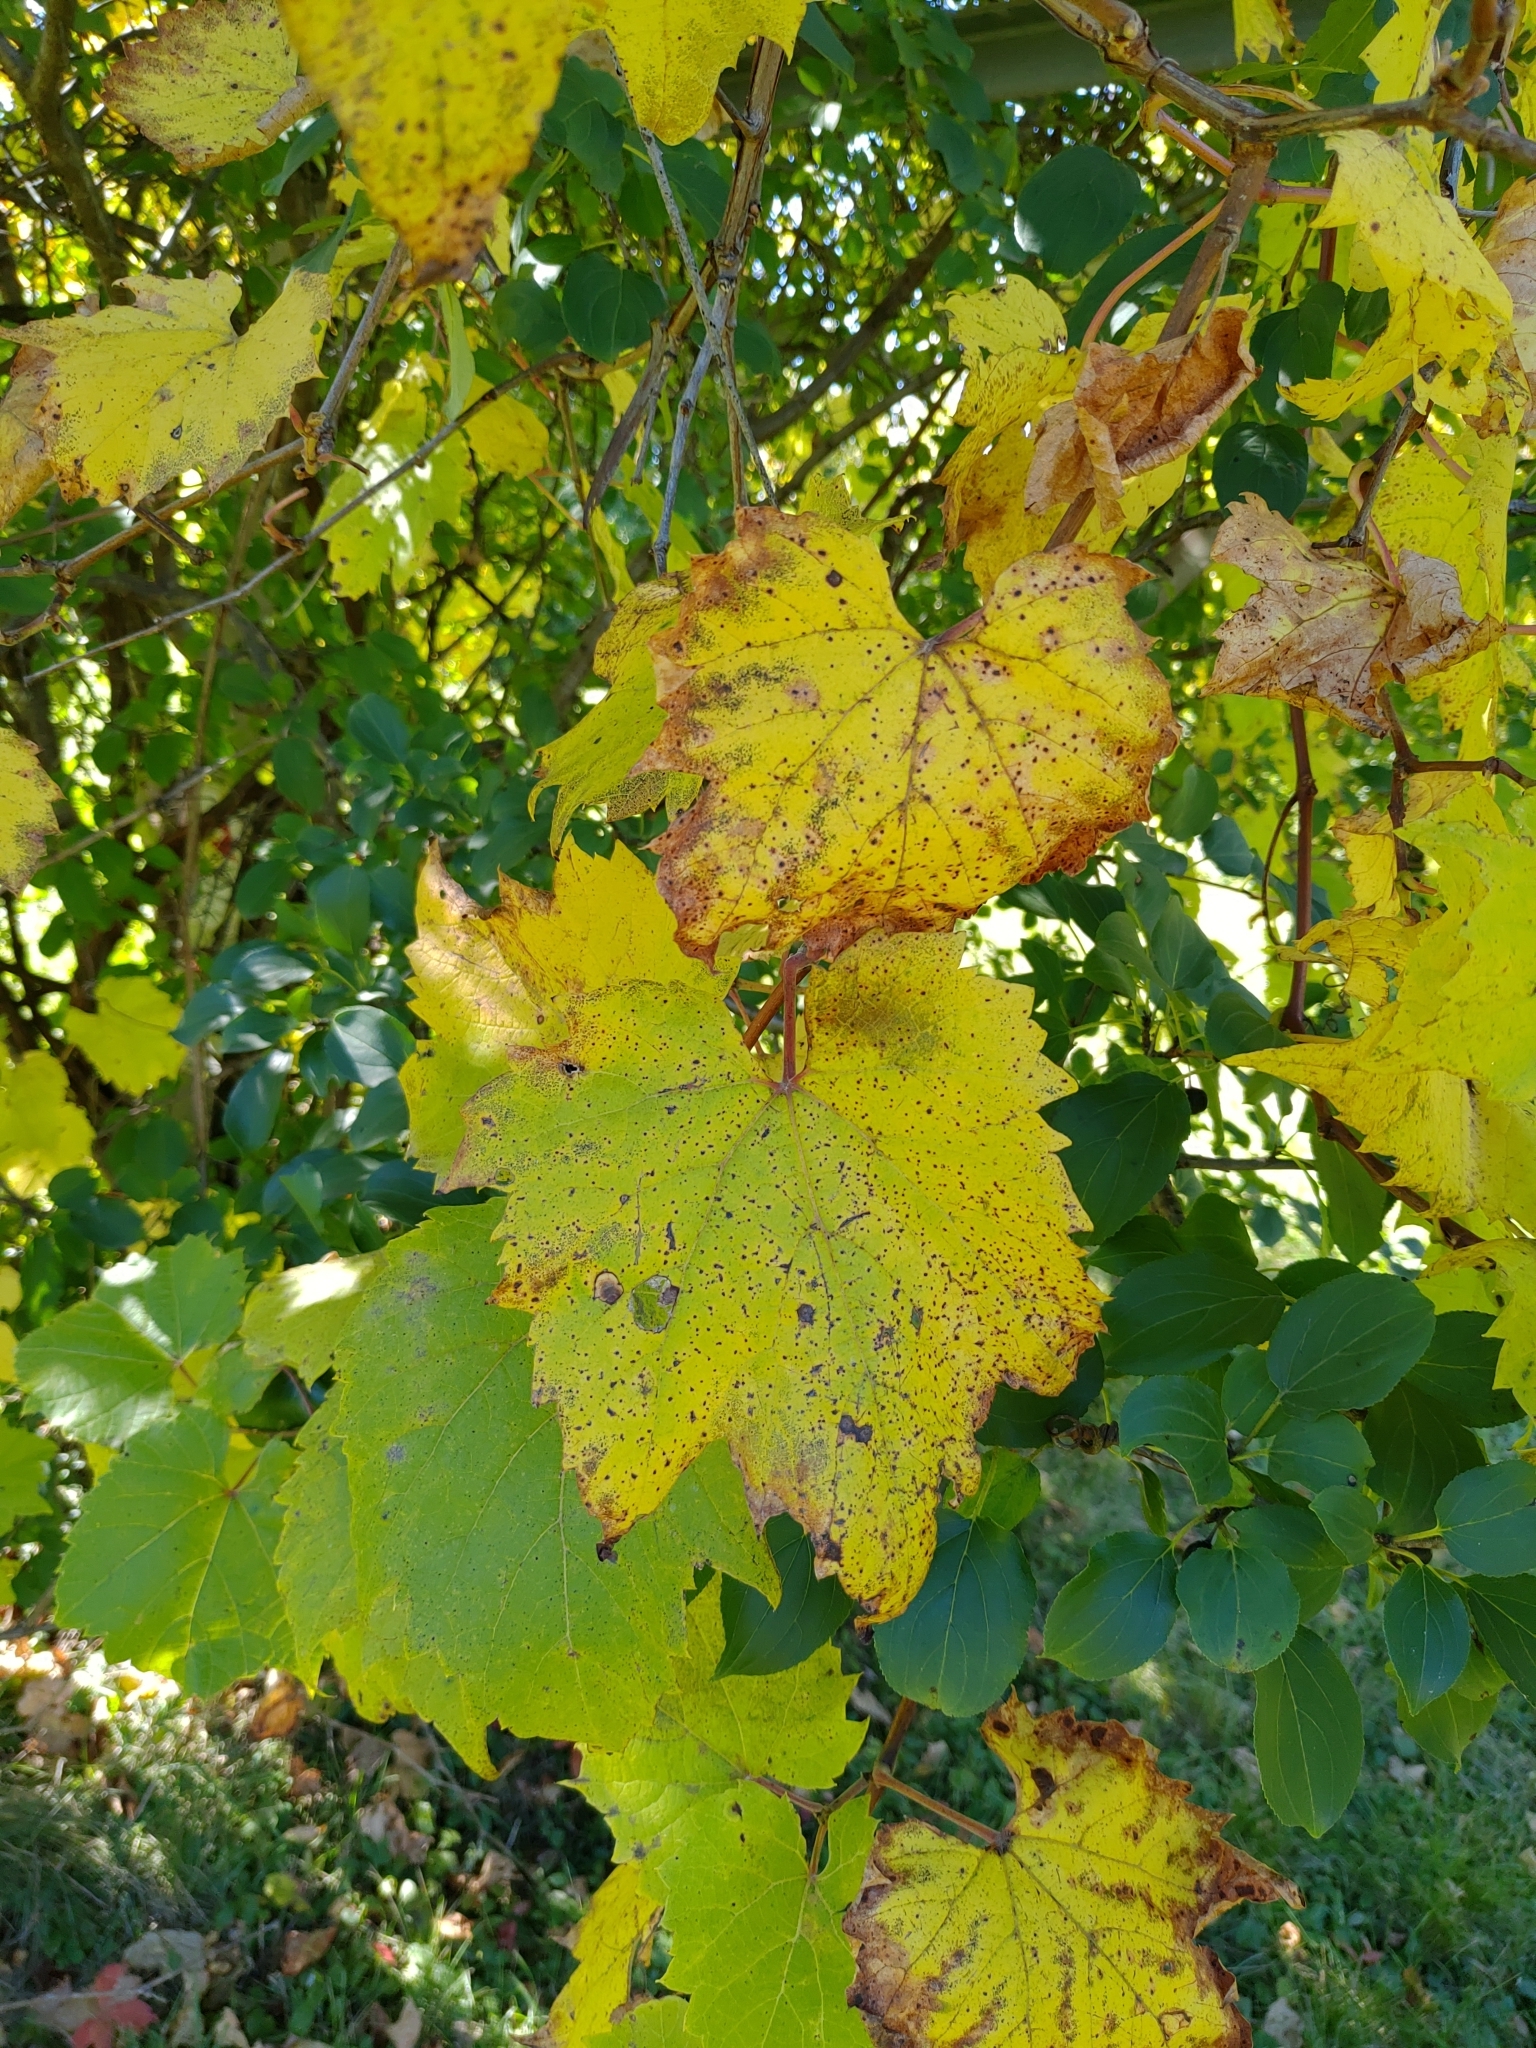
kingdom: Plantae
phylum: Tracheophyta
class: Magnoliopsida
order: Vitales
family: Vitaceae
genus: Vitis
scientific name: Vitis riparia
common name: Frost grape
